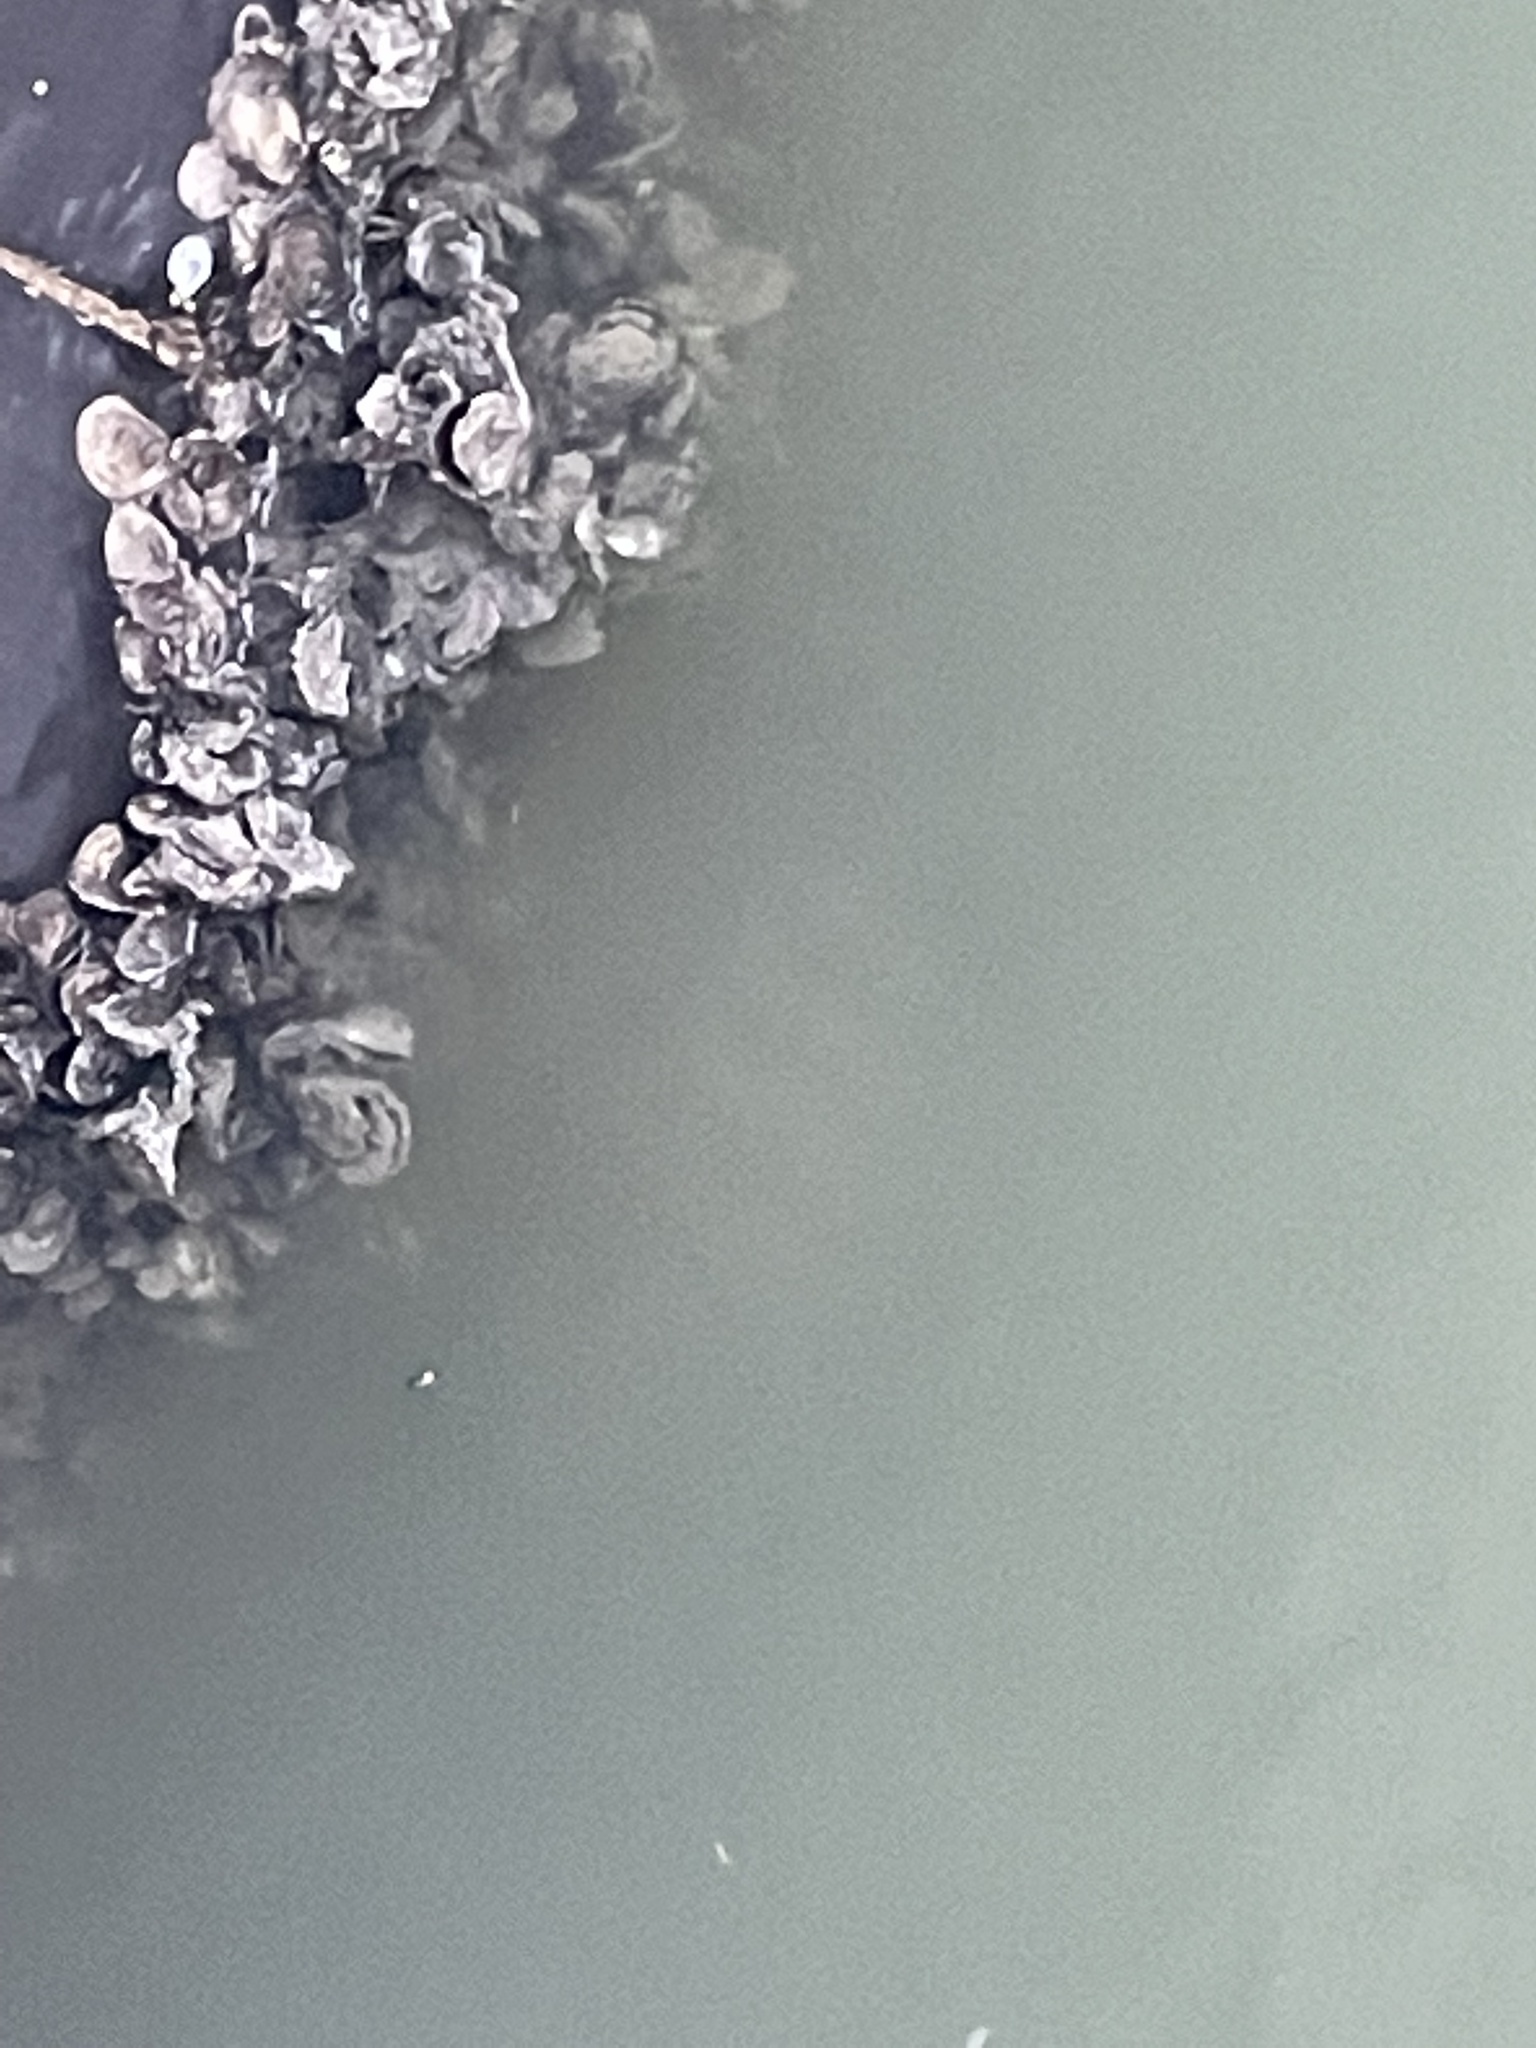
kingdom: Animalia
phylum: Chordata
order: Perciformes
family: Sparidae
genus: Archosargus
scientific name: Archosargus probatocephalus
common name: Sheepshead
